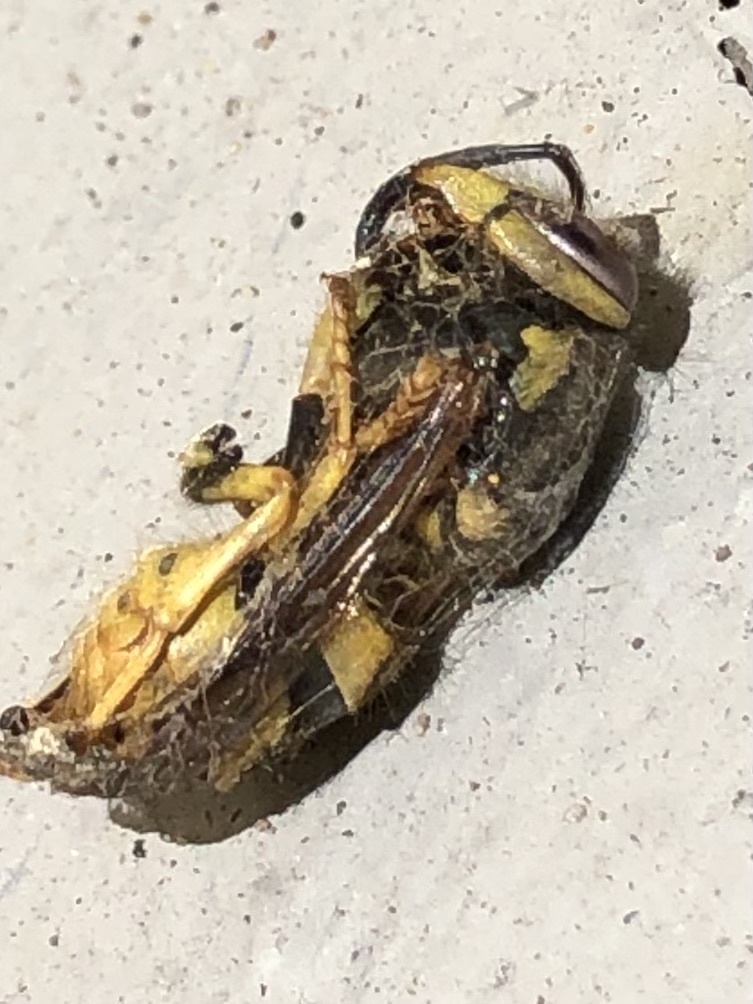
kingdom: Animalia
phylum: Arthropoda
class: Insecta
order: Hymenoptera
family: Vespidae
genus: Vespula
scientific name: Vespula pensylvanica
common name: Western yellowjacket
